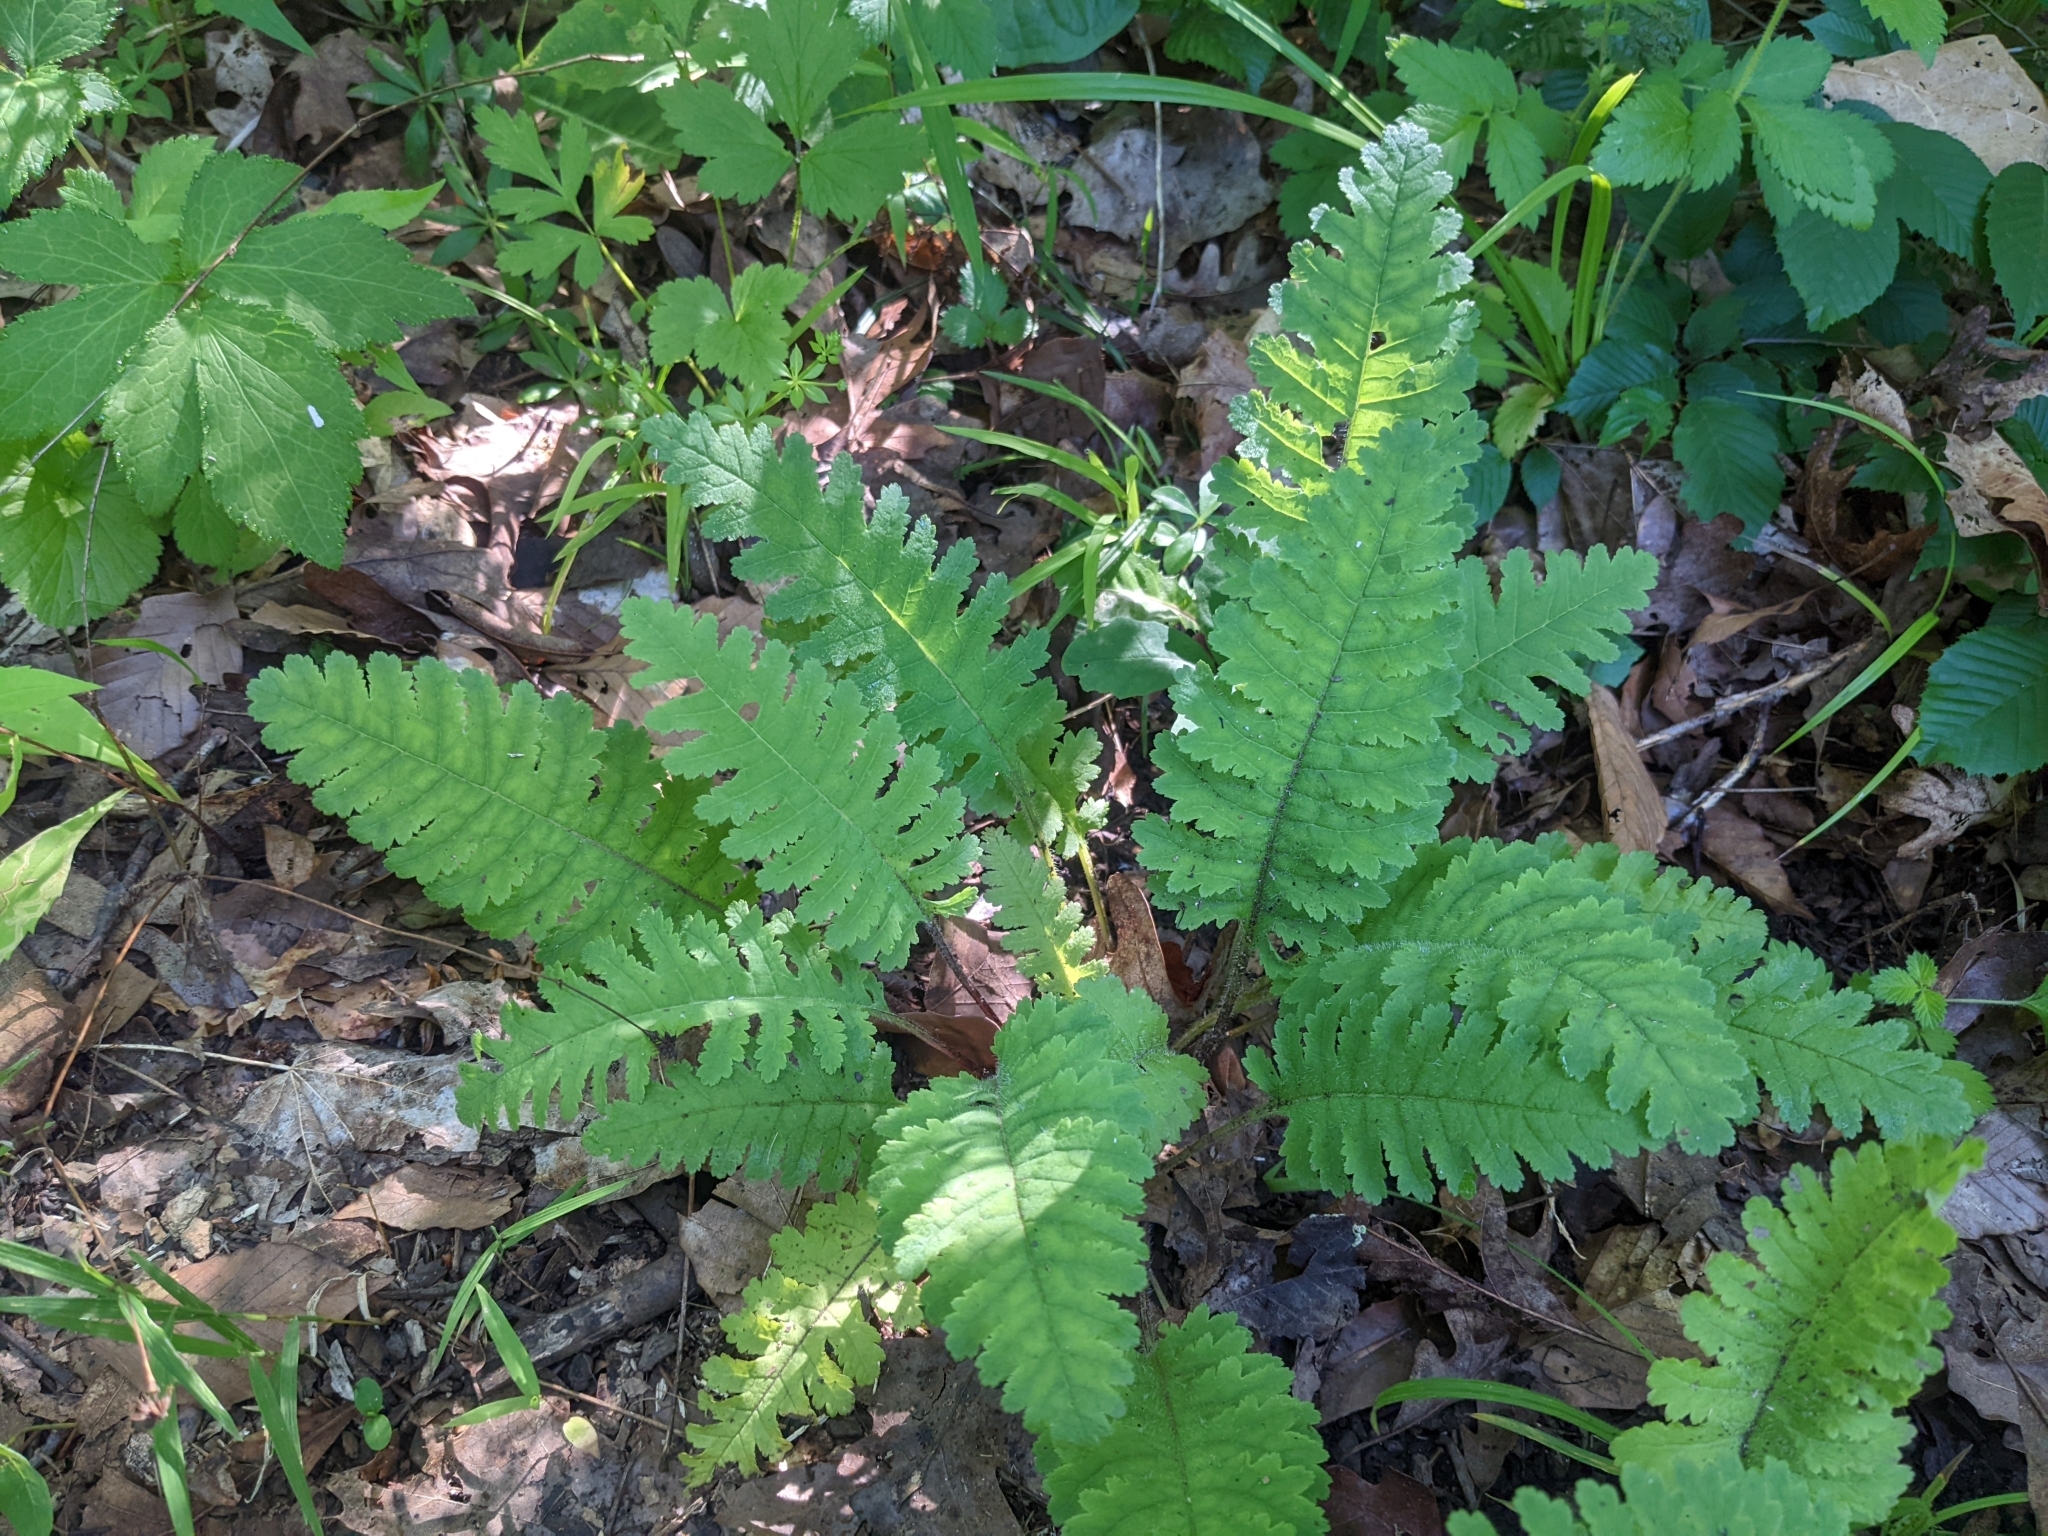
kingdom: Plantae
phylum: Tracheophyta
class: Magnoliopsida
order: Lamiales
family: Orobanchaceae
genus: Pedicularis
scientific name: Pedicularis canadensis
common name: Early lousewort
